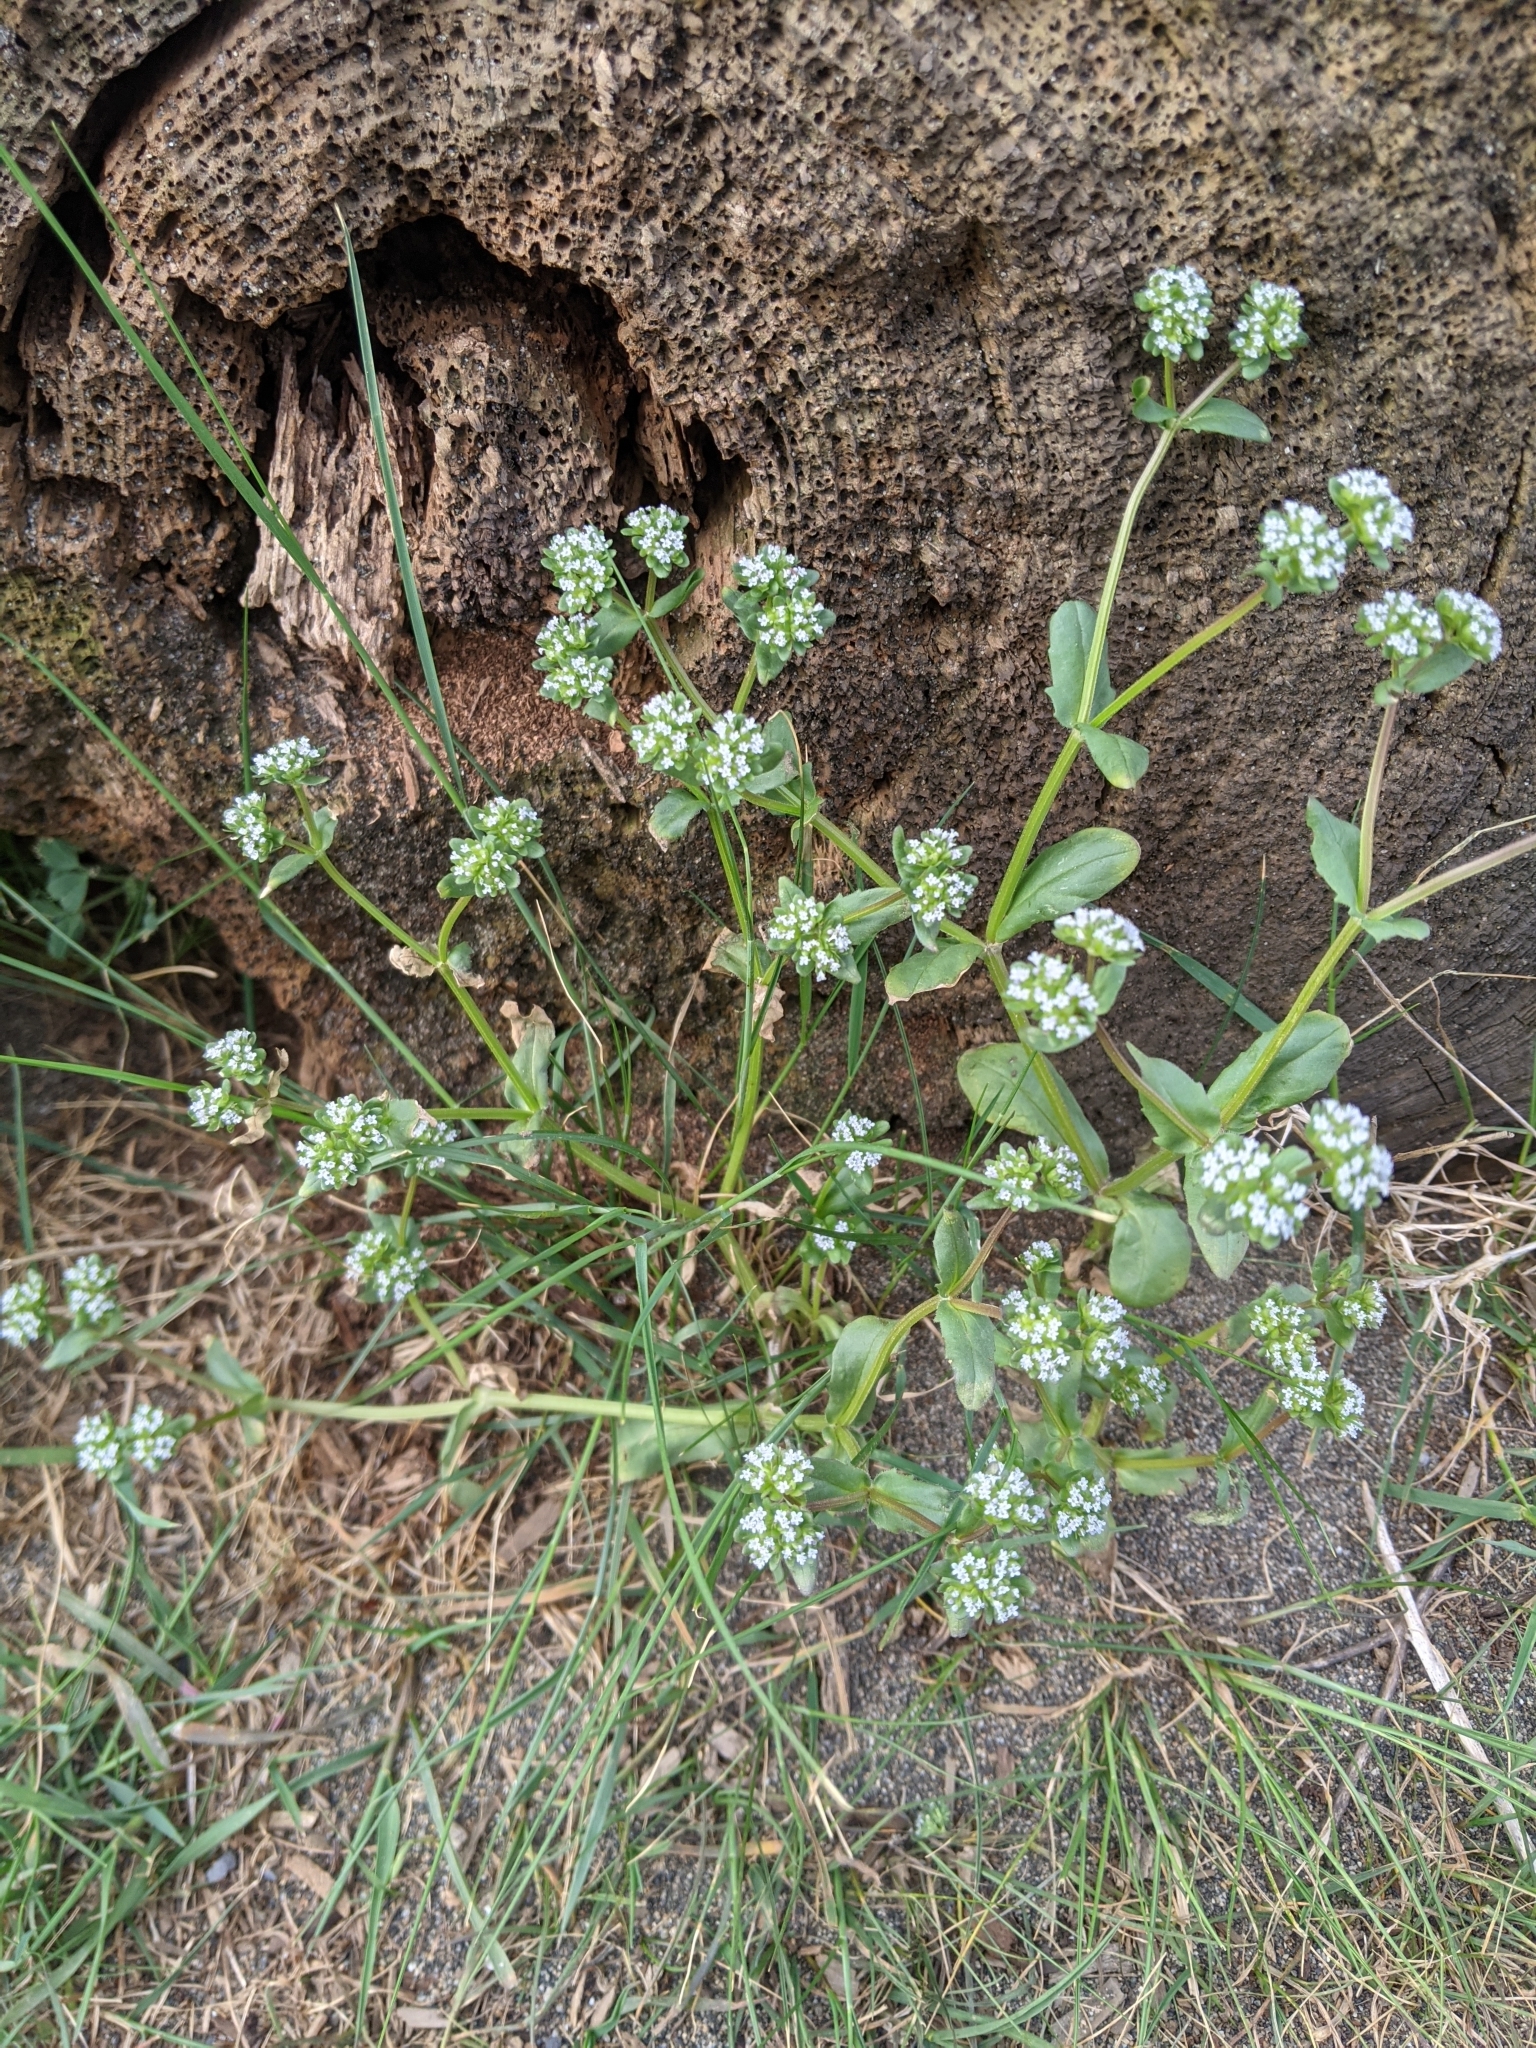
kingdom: Plantae
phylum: Tracheophyta
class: Magnoliopsida
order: Dipsacales
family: Caprifoliaceae
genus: Valerianella
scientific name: Valerianella locusta
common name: Common cornsalad
